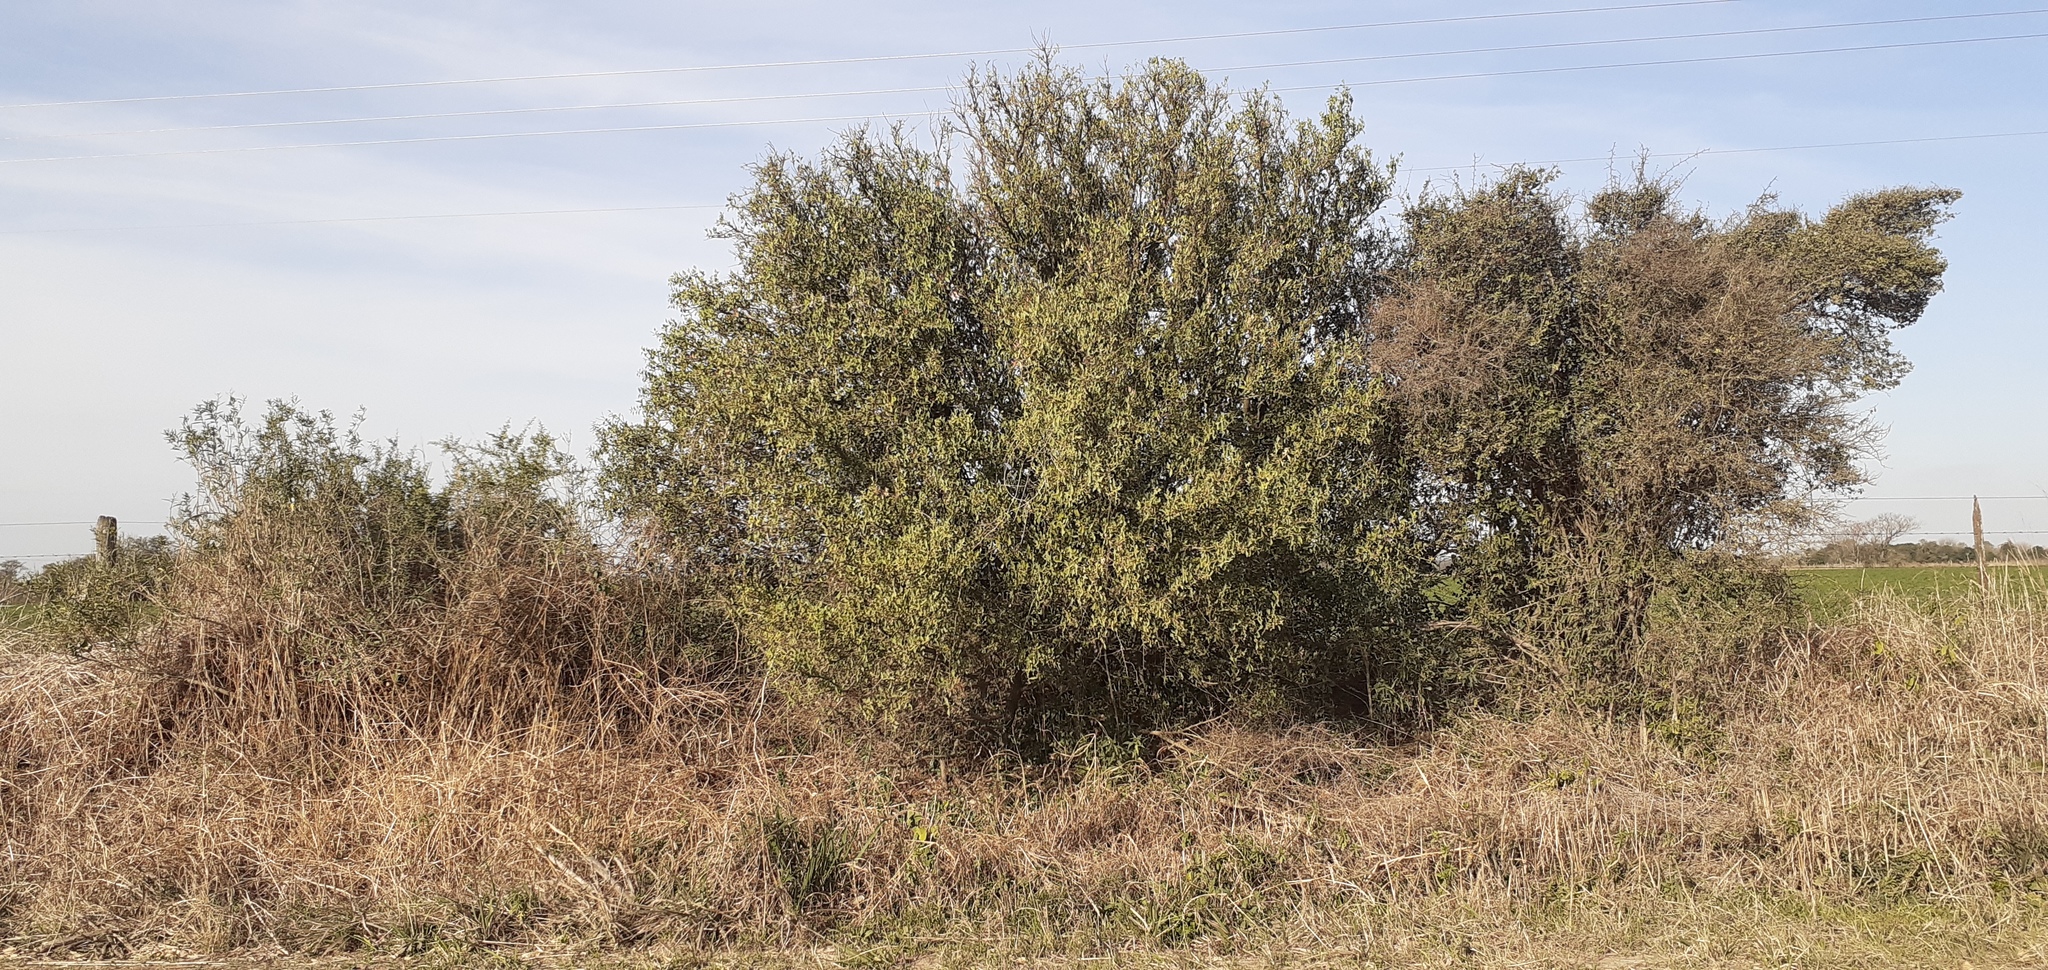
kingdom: Plantae
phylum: Tracheophyta
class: Magnoliopsida
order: Santalales
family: Cervantesiaceae
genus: Jodina
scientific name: Jodina rhombifolia
